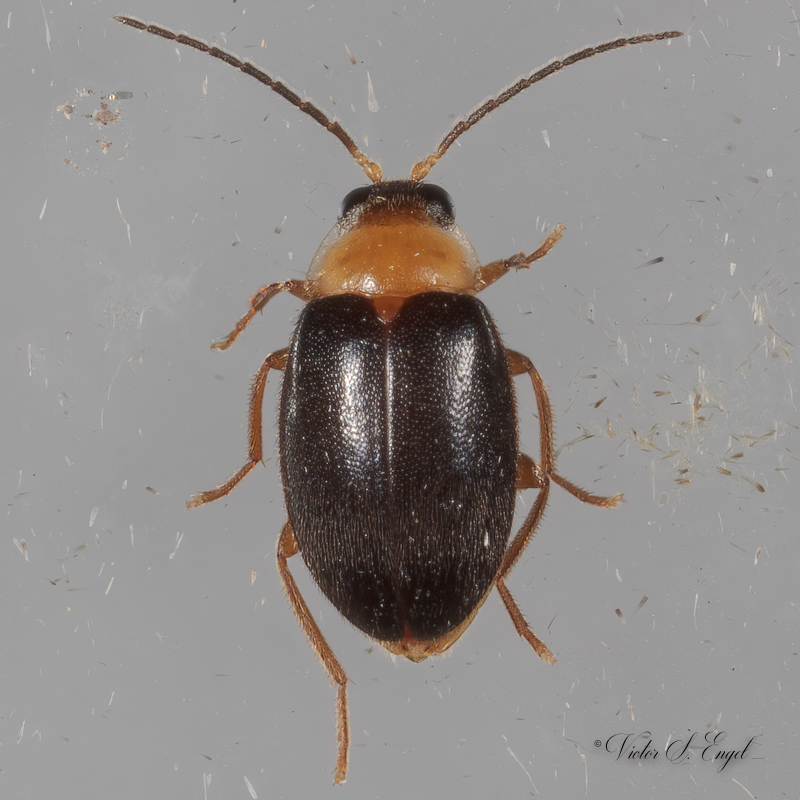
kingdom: Animalia
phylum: Arthropoda
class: Insecta
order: Coleoptera
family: Scirtidae
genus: Sacodes
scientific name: Sacodes pulchella
